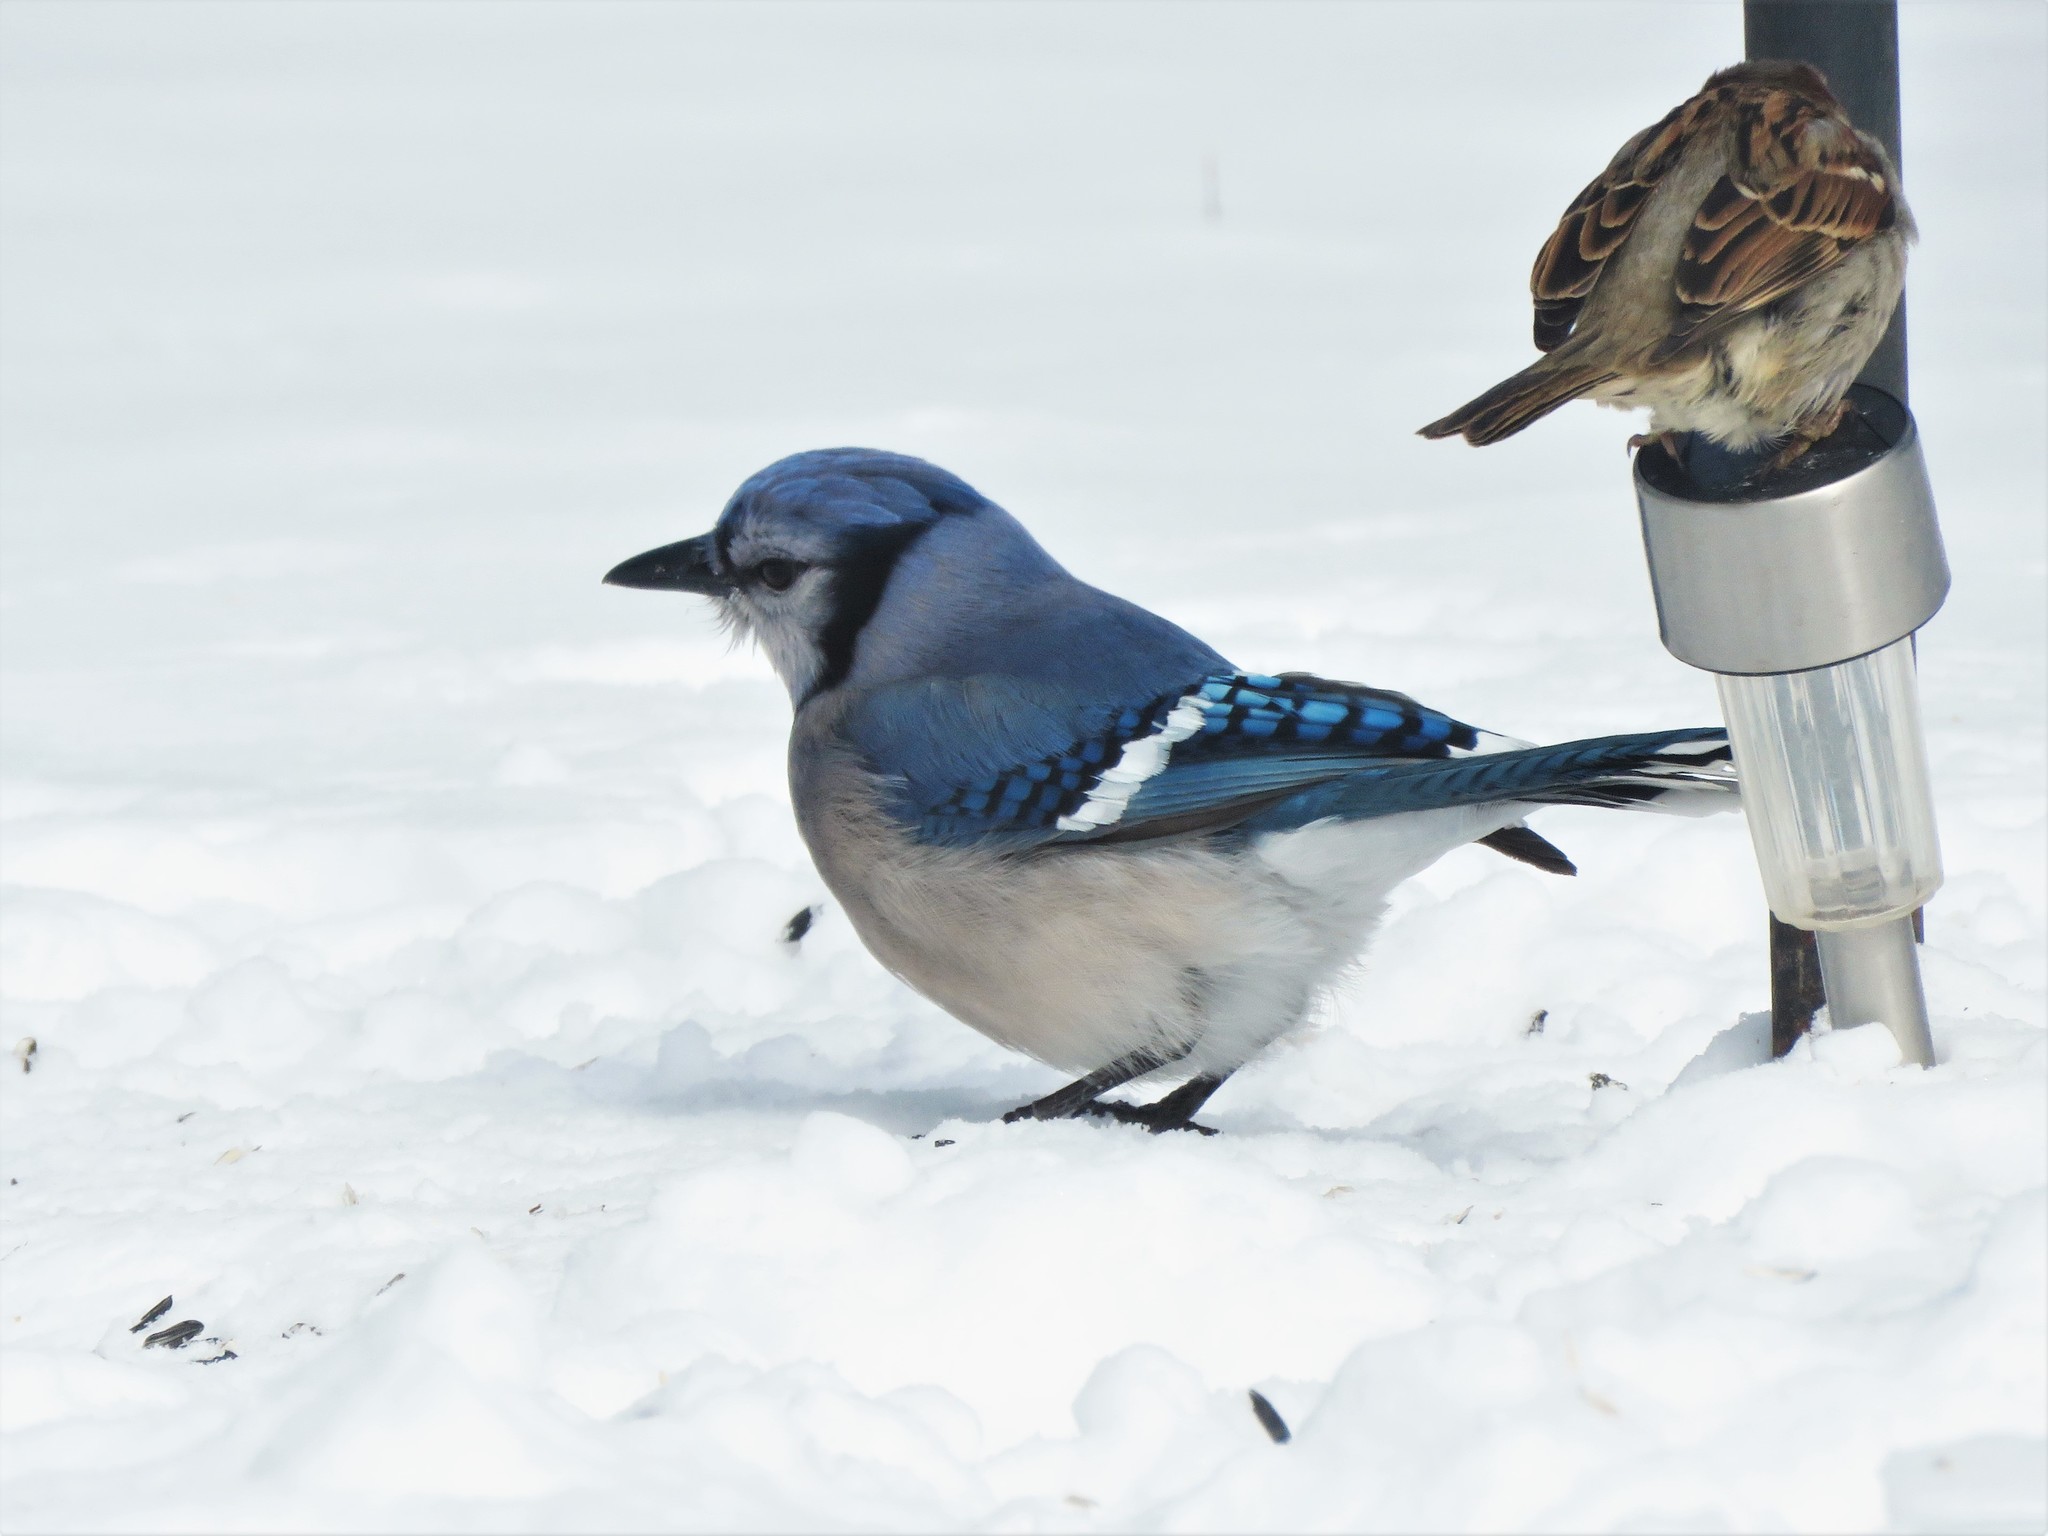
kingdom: Animalia
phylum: Chordata
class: Aves
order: Passeriformes
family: Corvidae
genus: Cyanocitta
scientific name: Cyanocitta cristata
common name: Blue jay
